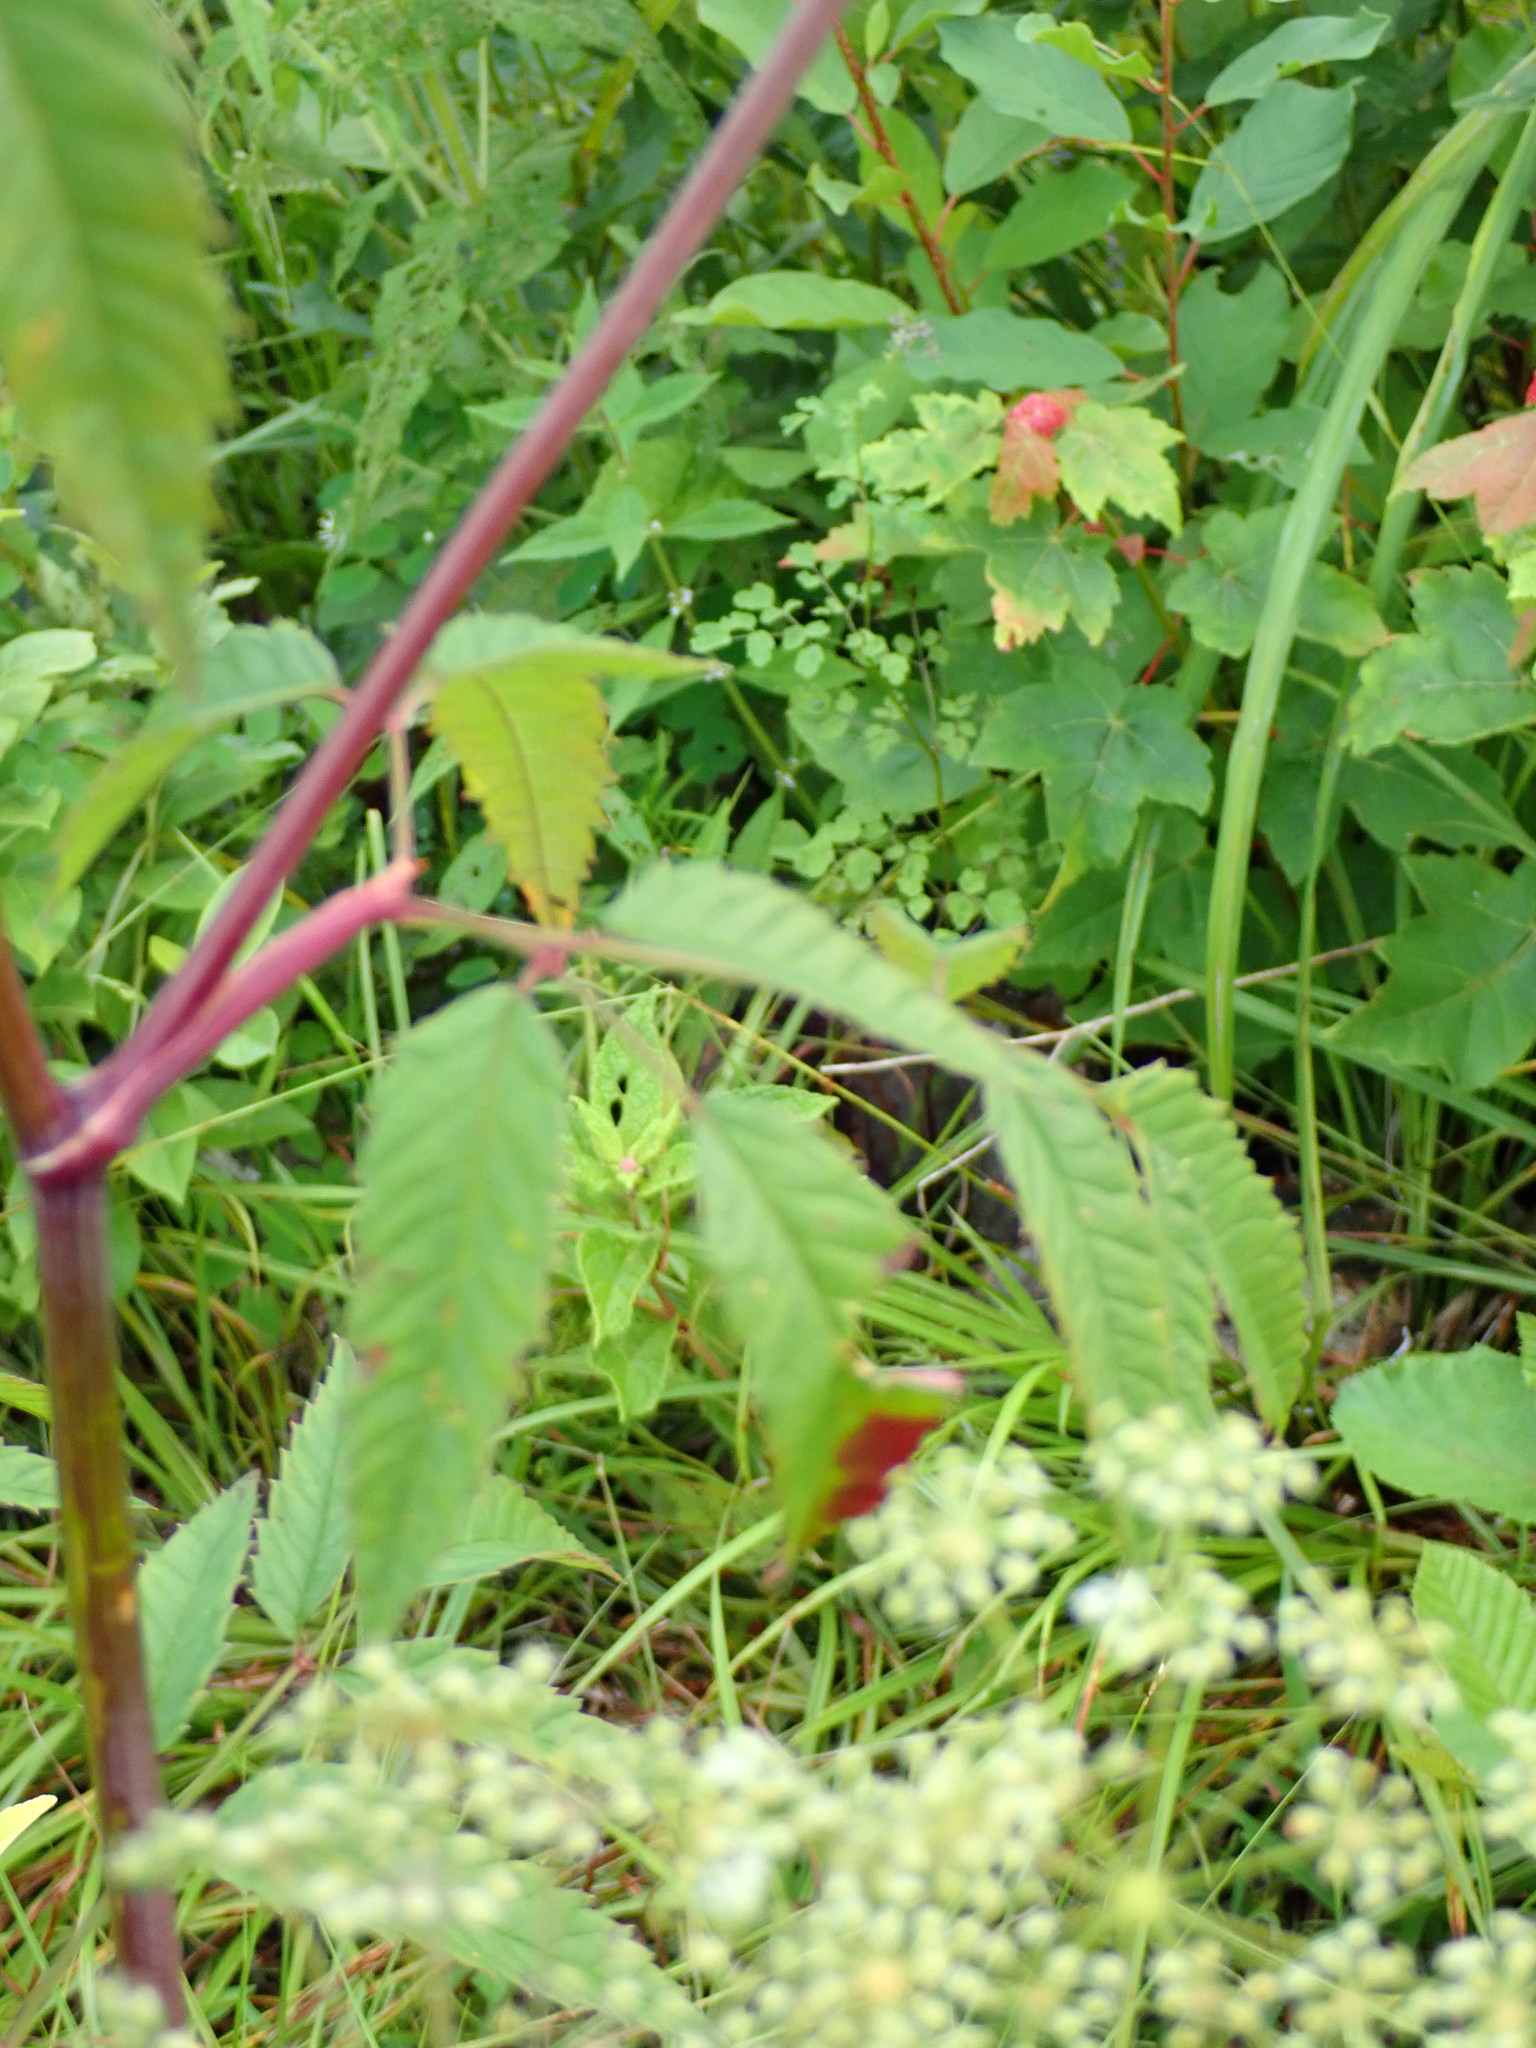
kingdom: Plantae
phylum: Tracheophyta
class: Magnoliopsida
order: Apiales
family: Apiaceae
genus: Cicuta
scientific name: Cicuta maculata
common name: Spotted cowbane
